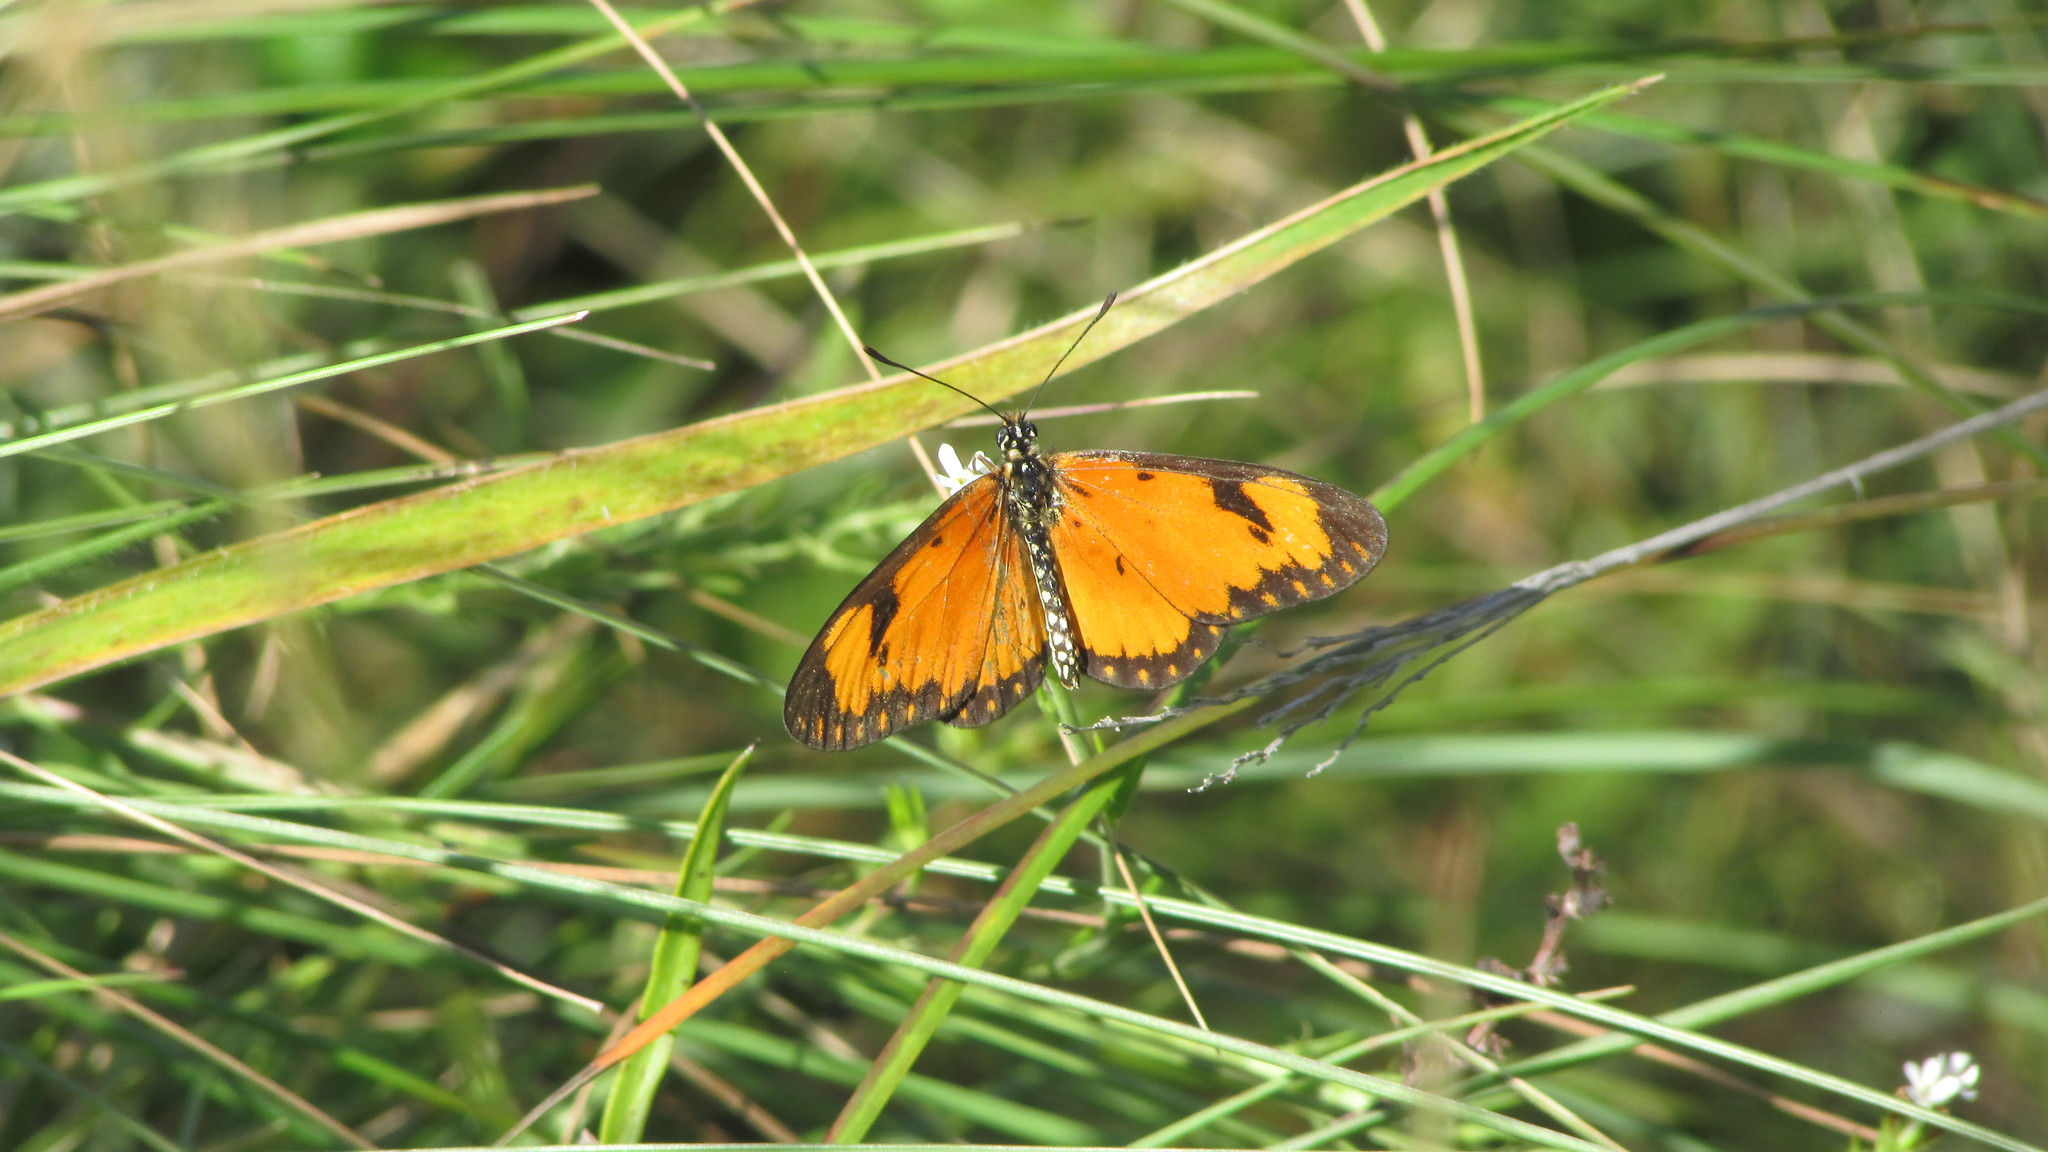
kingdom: Animalia
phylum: Arthropoda
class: Insecta
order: Lepidoptera
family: Nymphalidae
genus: Acraea
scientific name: Acraea Telchinia serena
